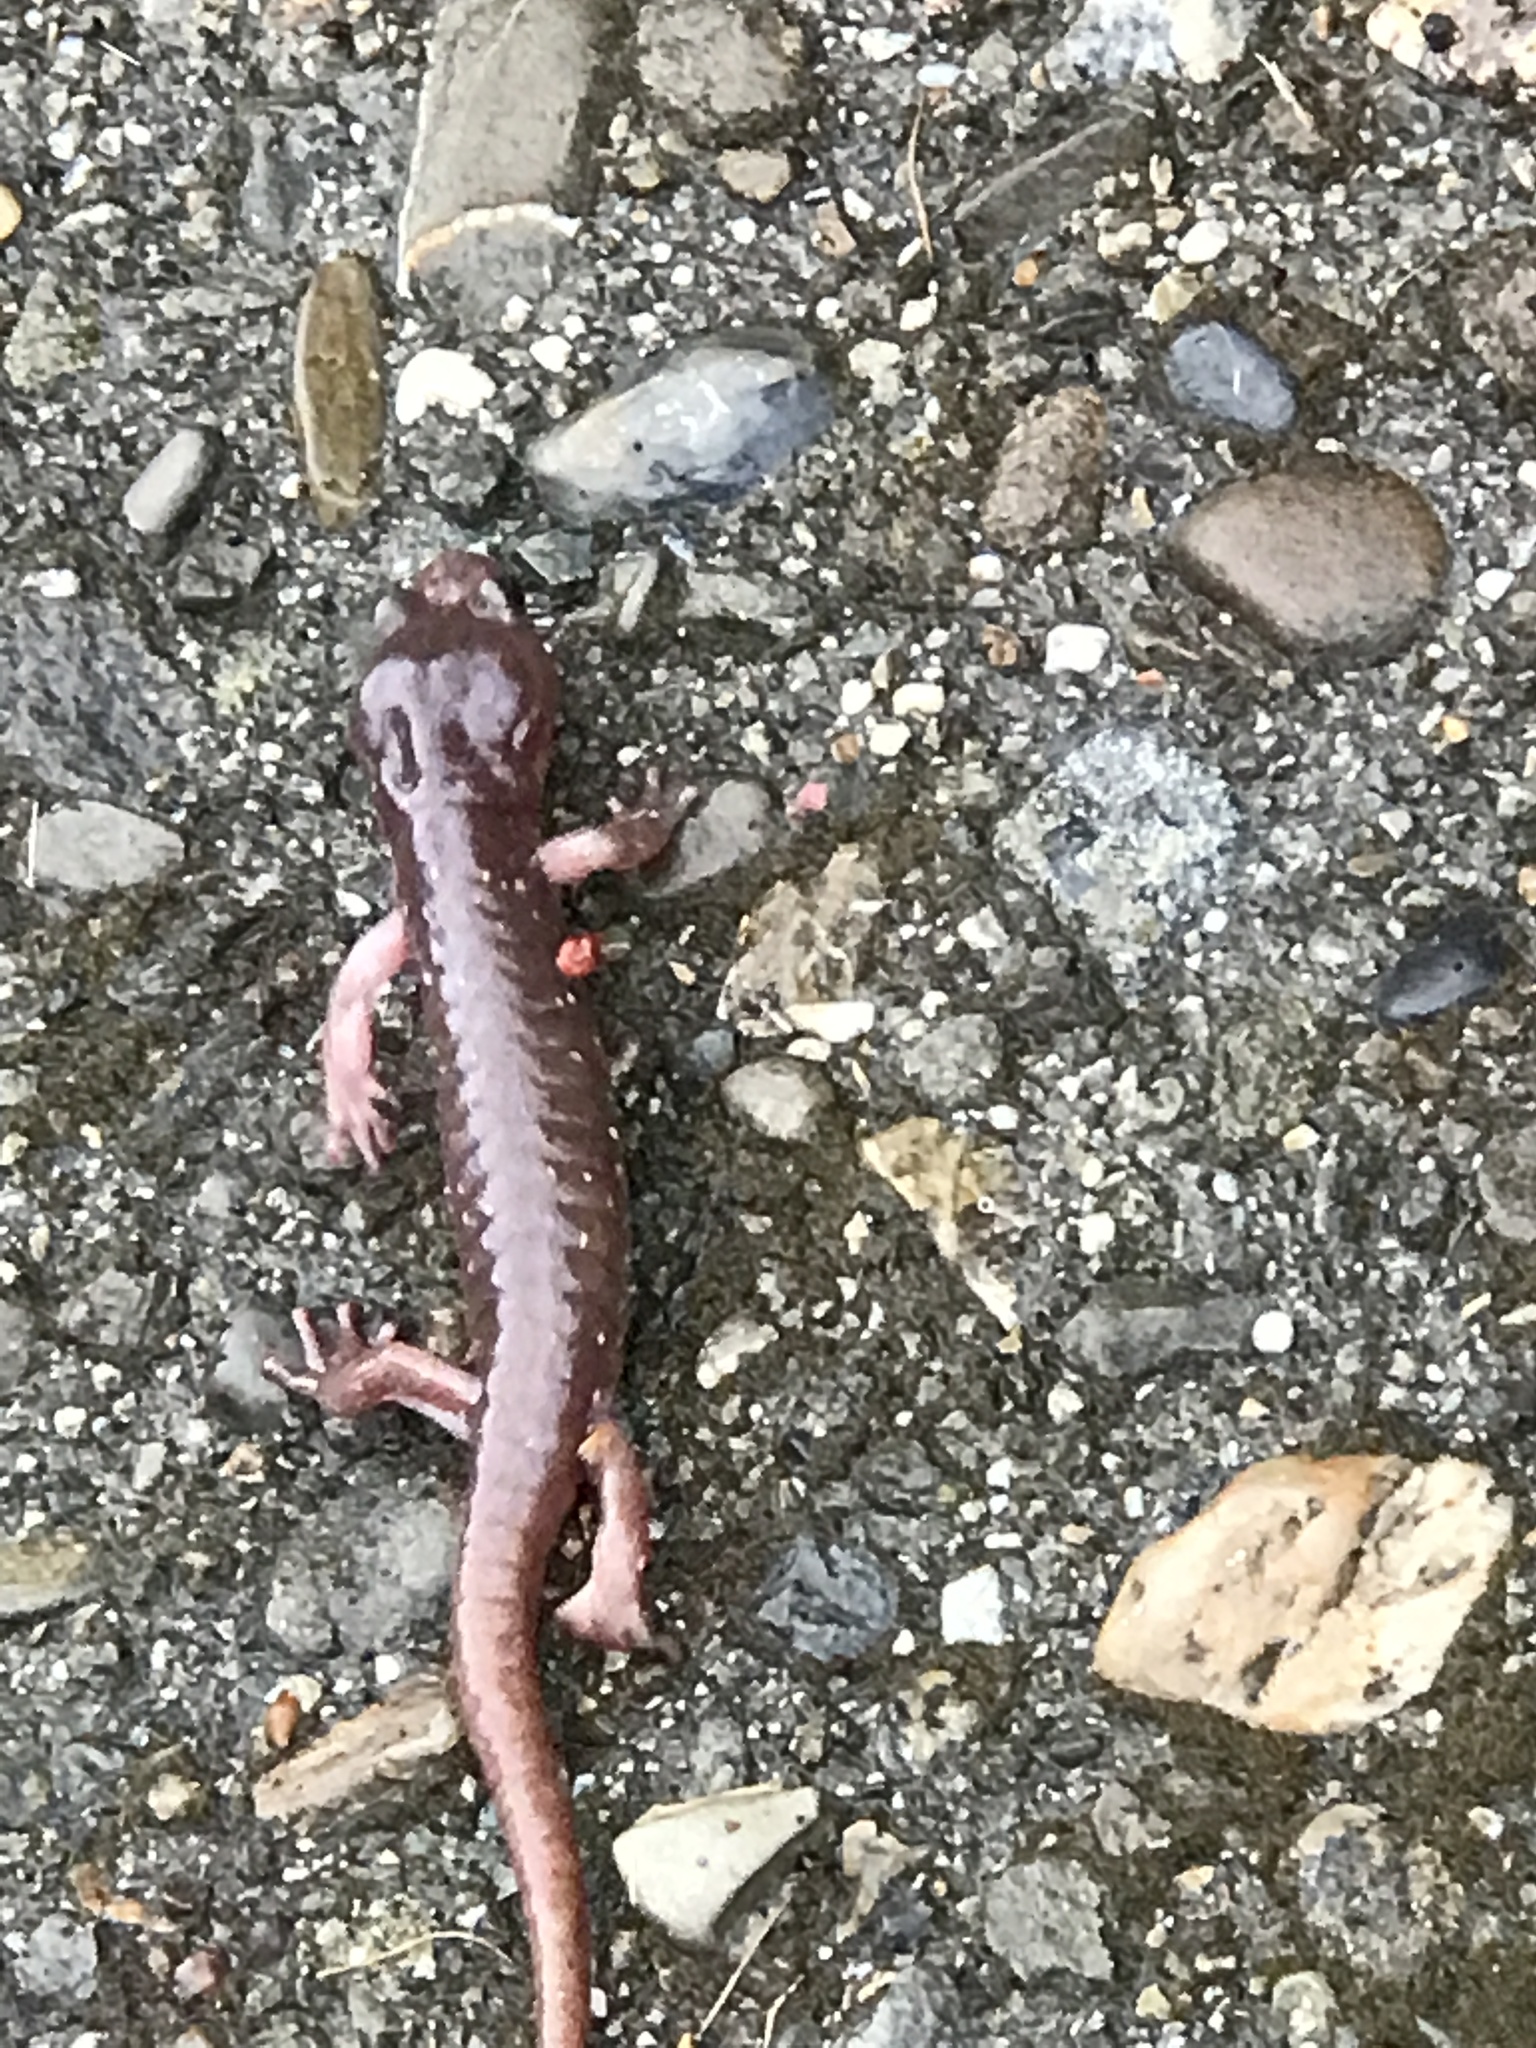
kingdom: Animalia
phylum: Chordata
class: Amphibia
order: Caudata
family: Plethodontidae
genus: Aneides
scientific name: Aneides lugubris
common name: Arboreal salamander
